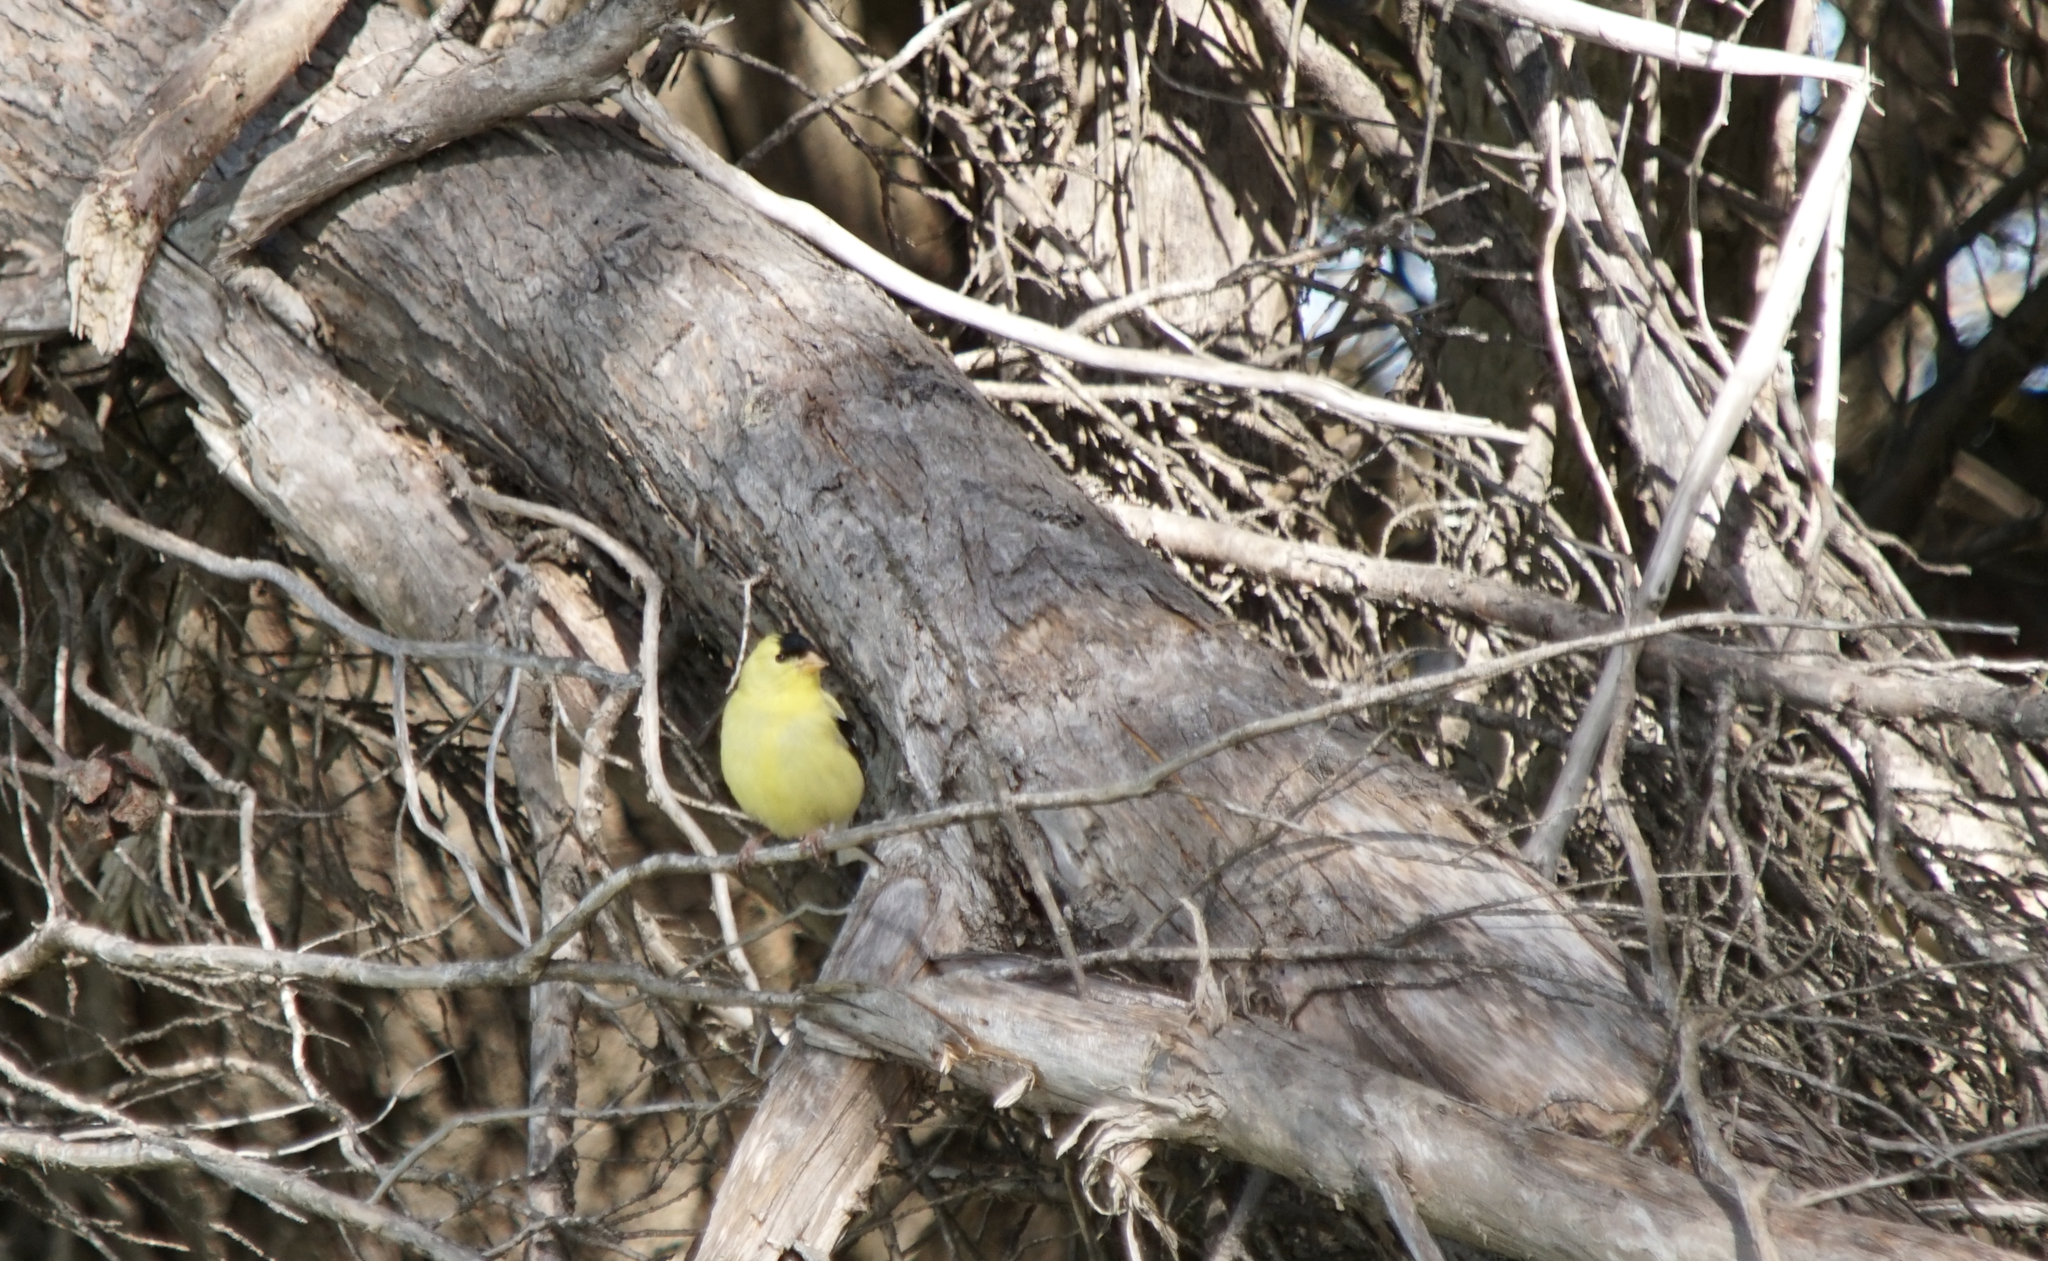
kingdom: Animalia
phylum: Chordata
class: Aves
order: Passeriformes
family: Fringillidae
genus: Spinus
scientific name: Spinus tristis
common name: American goldfinch
